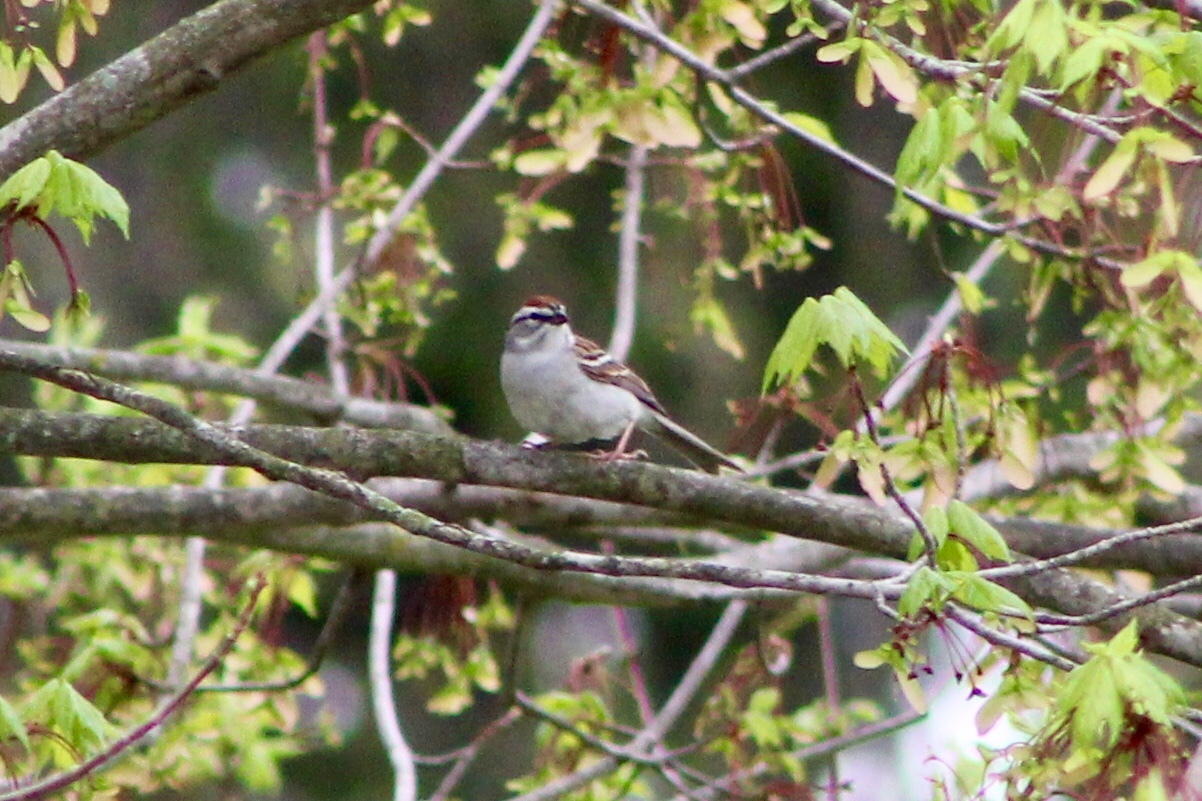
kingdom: Animalia
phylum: Chordata
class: Aves
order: Passeriformes
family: Passerellidae
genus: Spizella
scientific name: Spizella passerina
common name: Chipping sparrow
